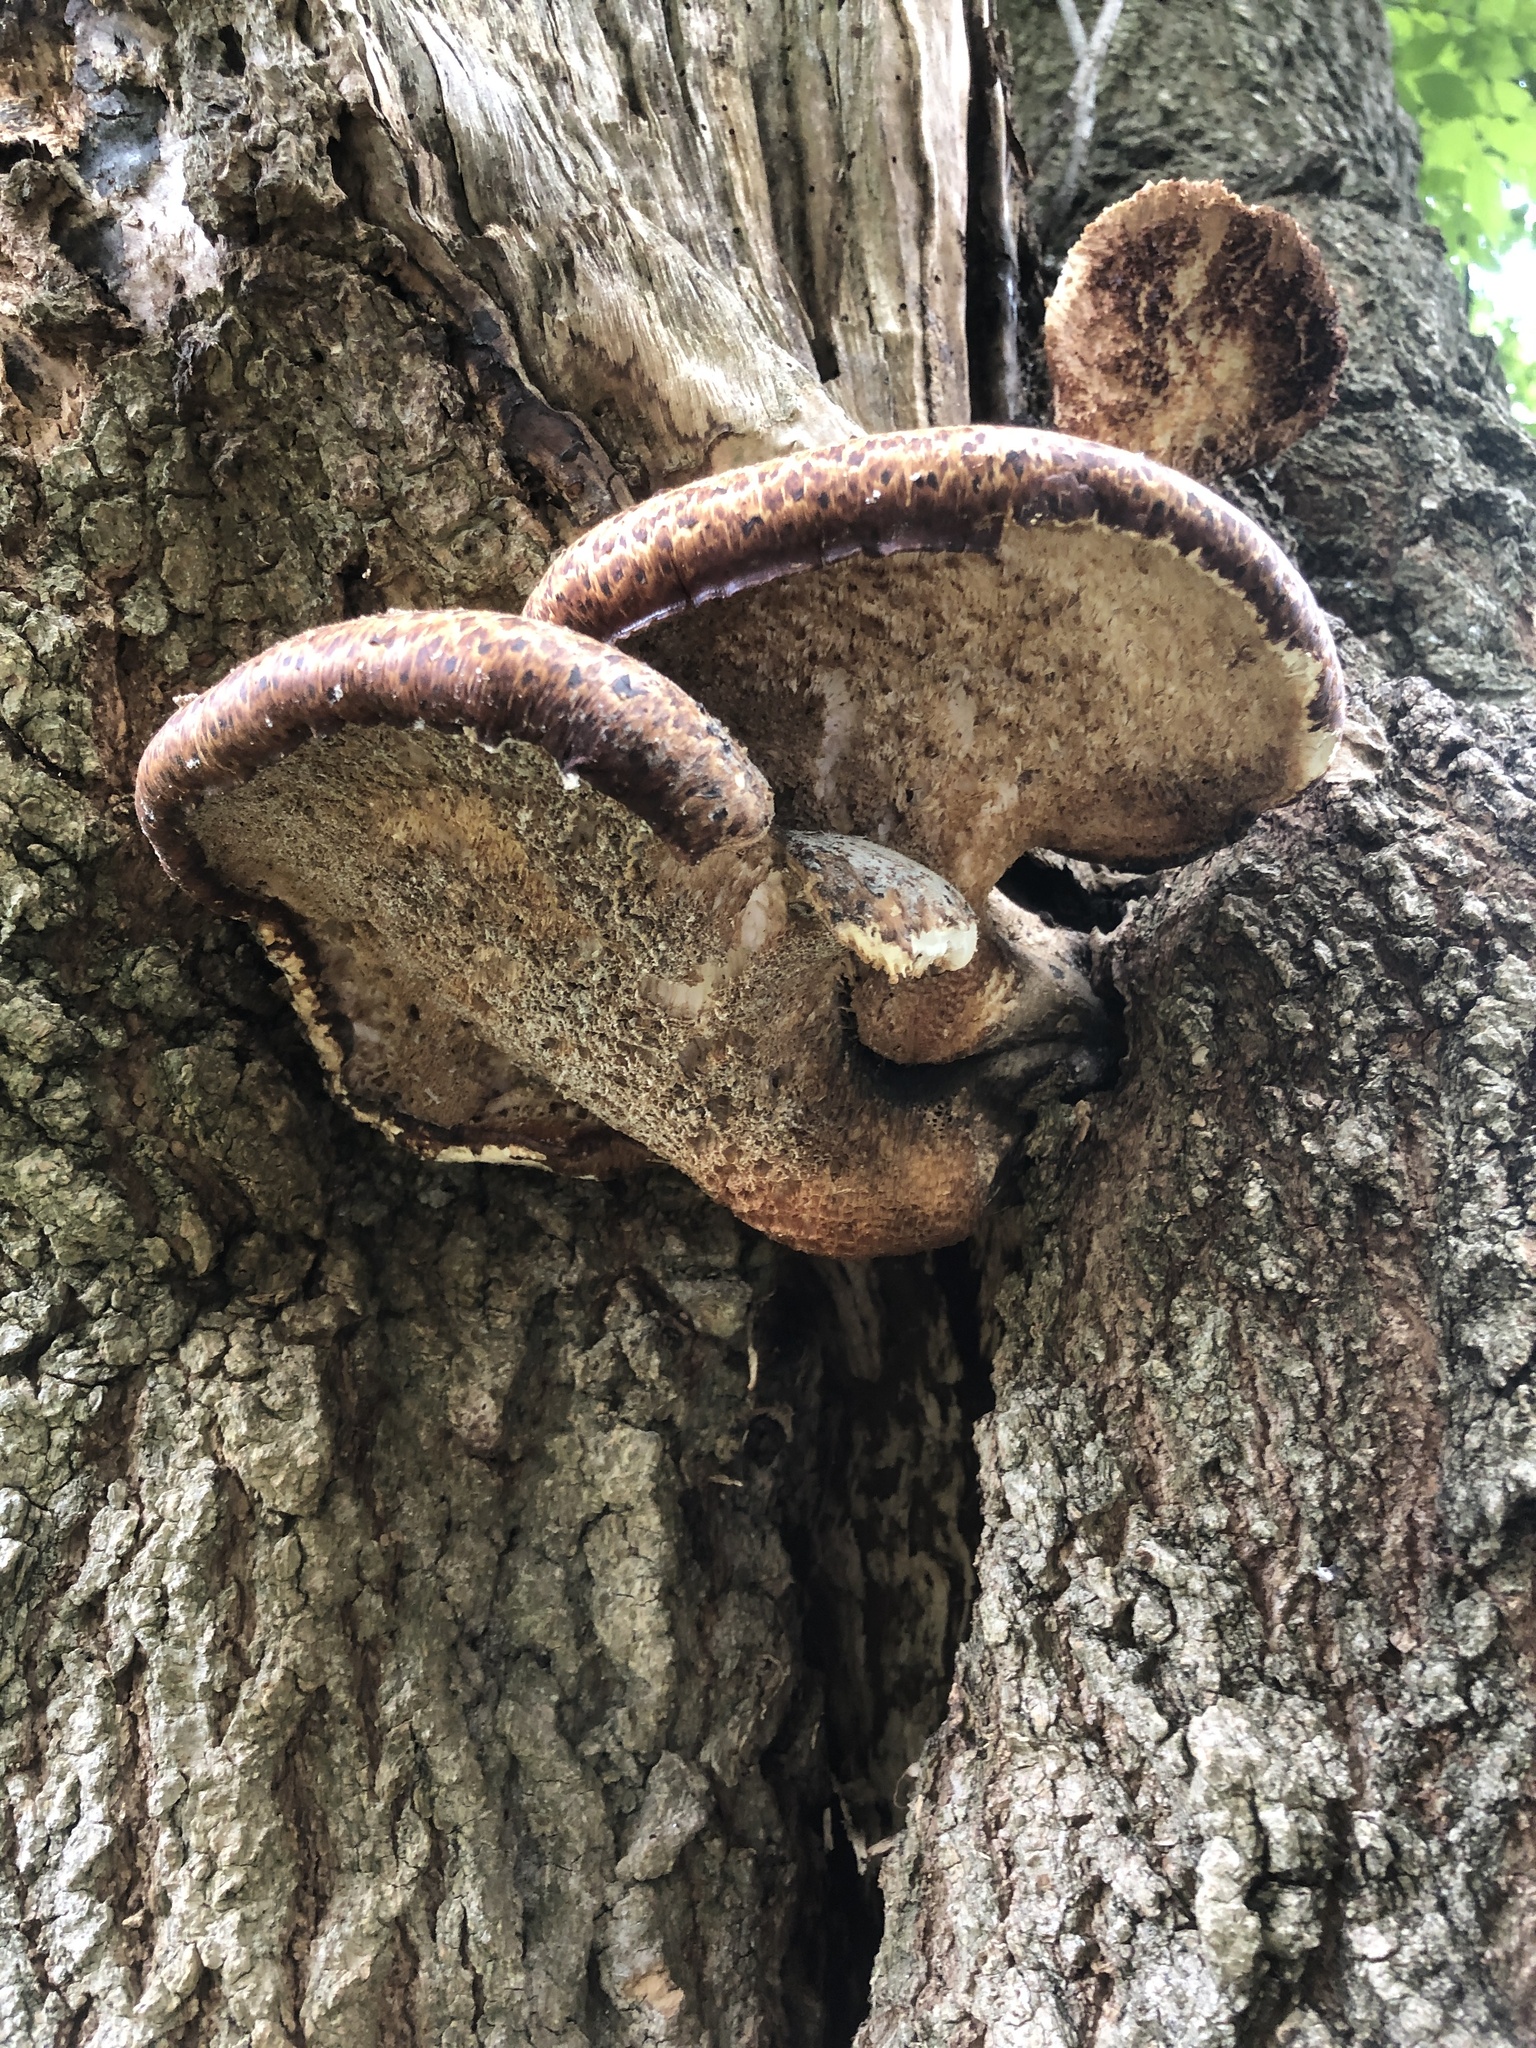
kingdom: Fungi
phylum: Basidiomycota
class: Agaricomycetes
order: Polyporales
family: Polyporaceae
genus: Cerioporus
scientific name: Cerioporus squamosus
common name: Dryad's saddle
